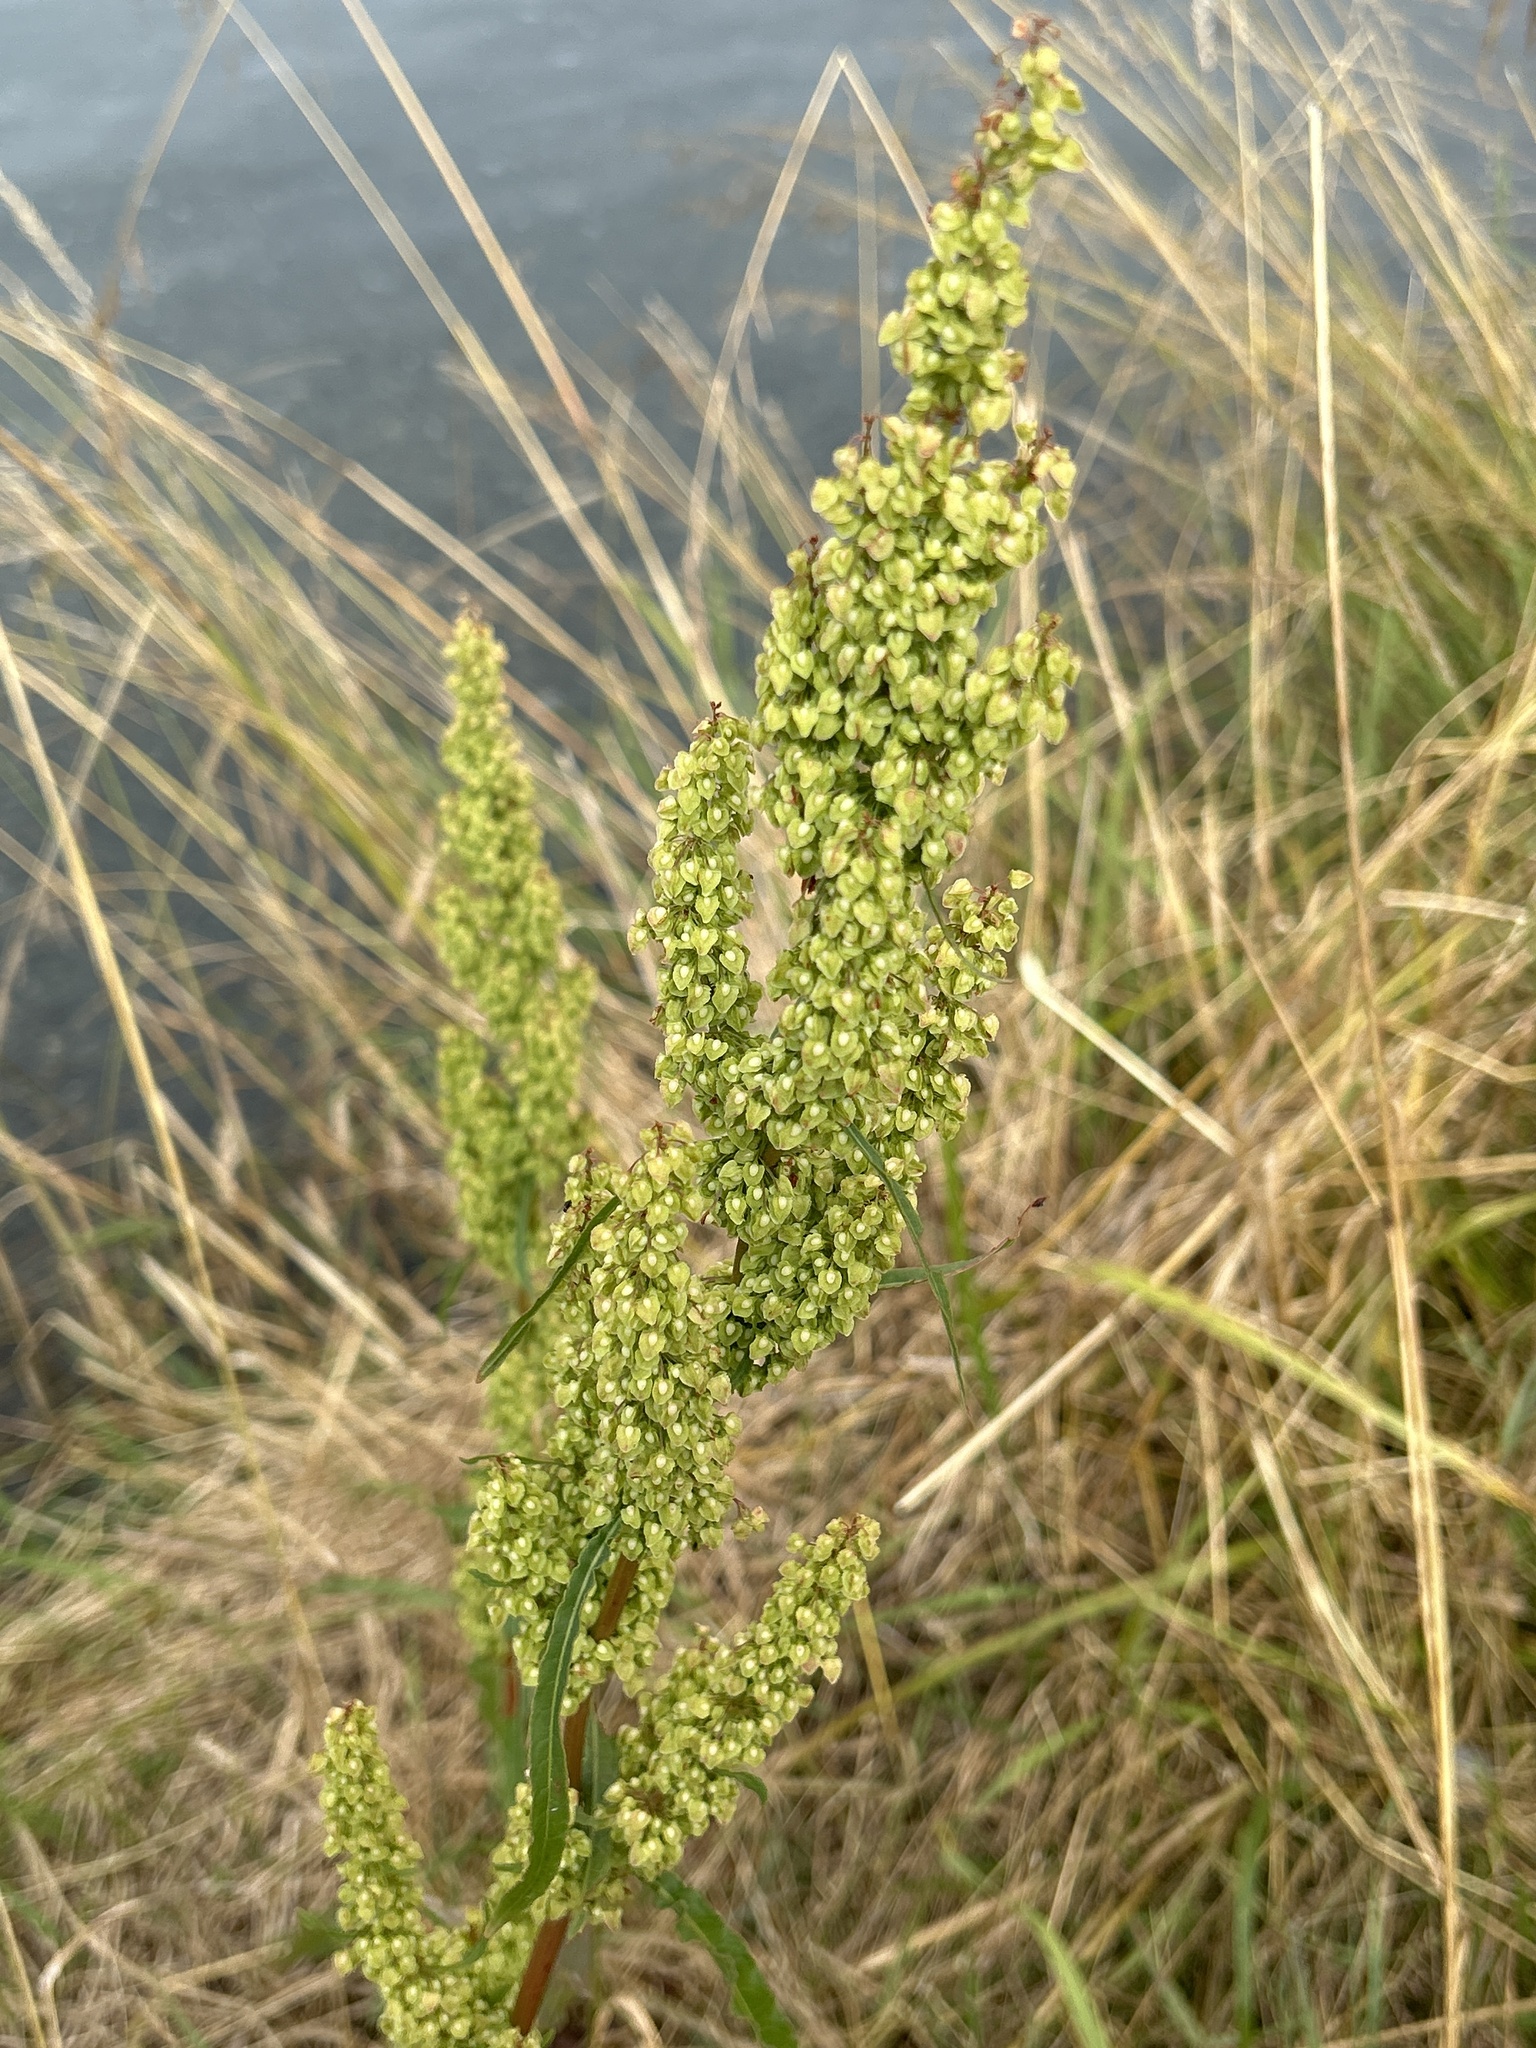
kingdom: Plantae
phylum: Tracheophyta
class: Magnoliopsida
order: Caryophyllales
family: Polygonaceae
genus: Rumex
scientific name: Rumex crispus
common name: Curled dock
